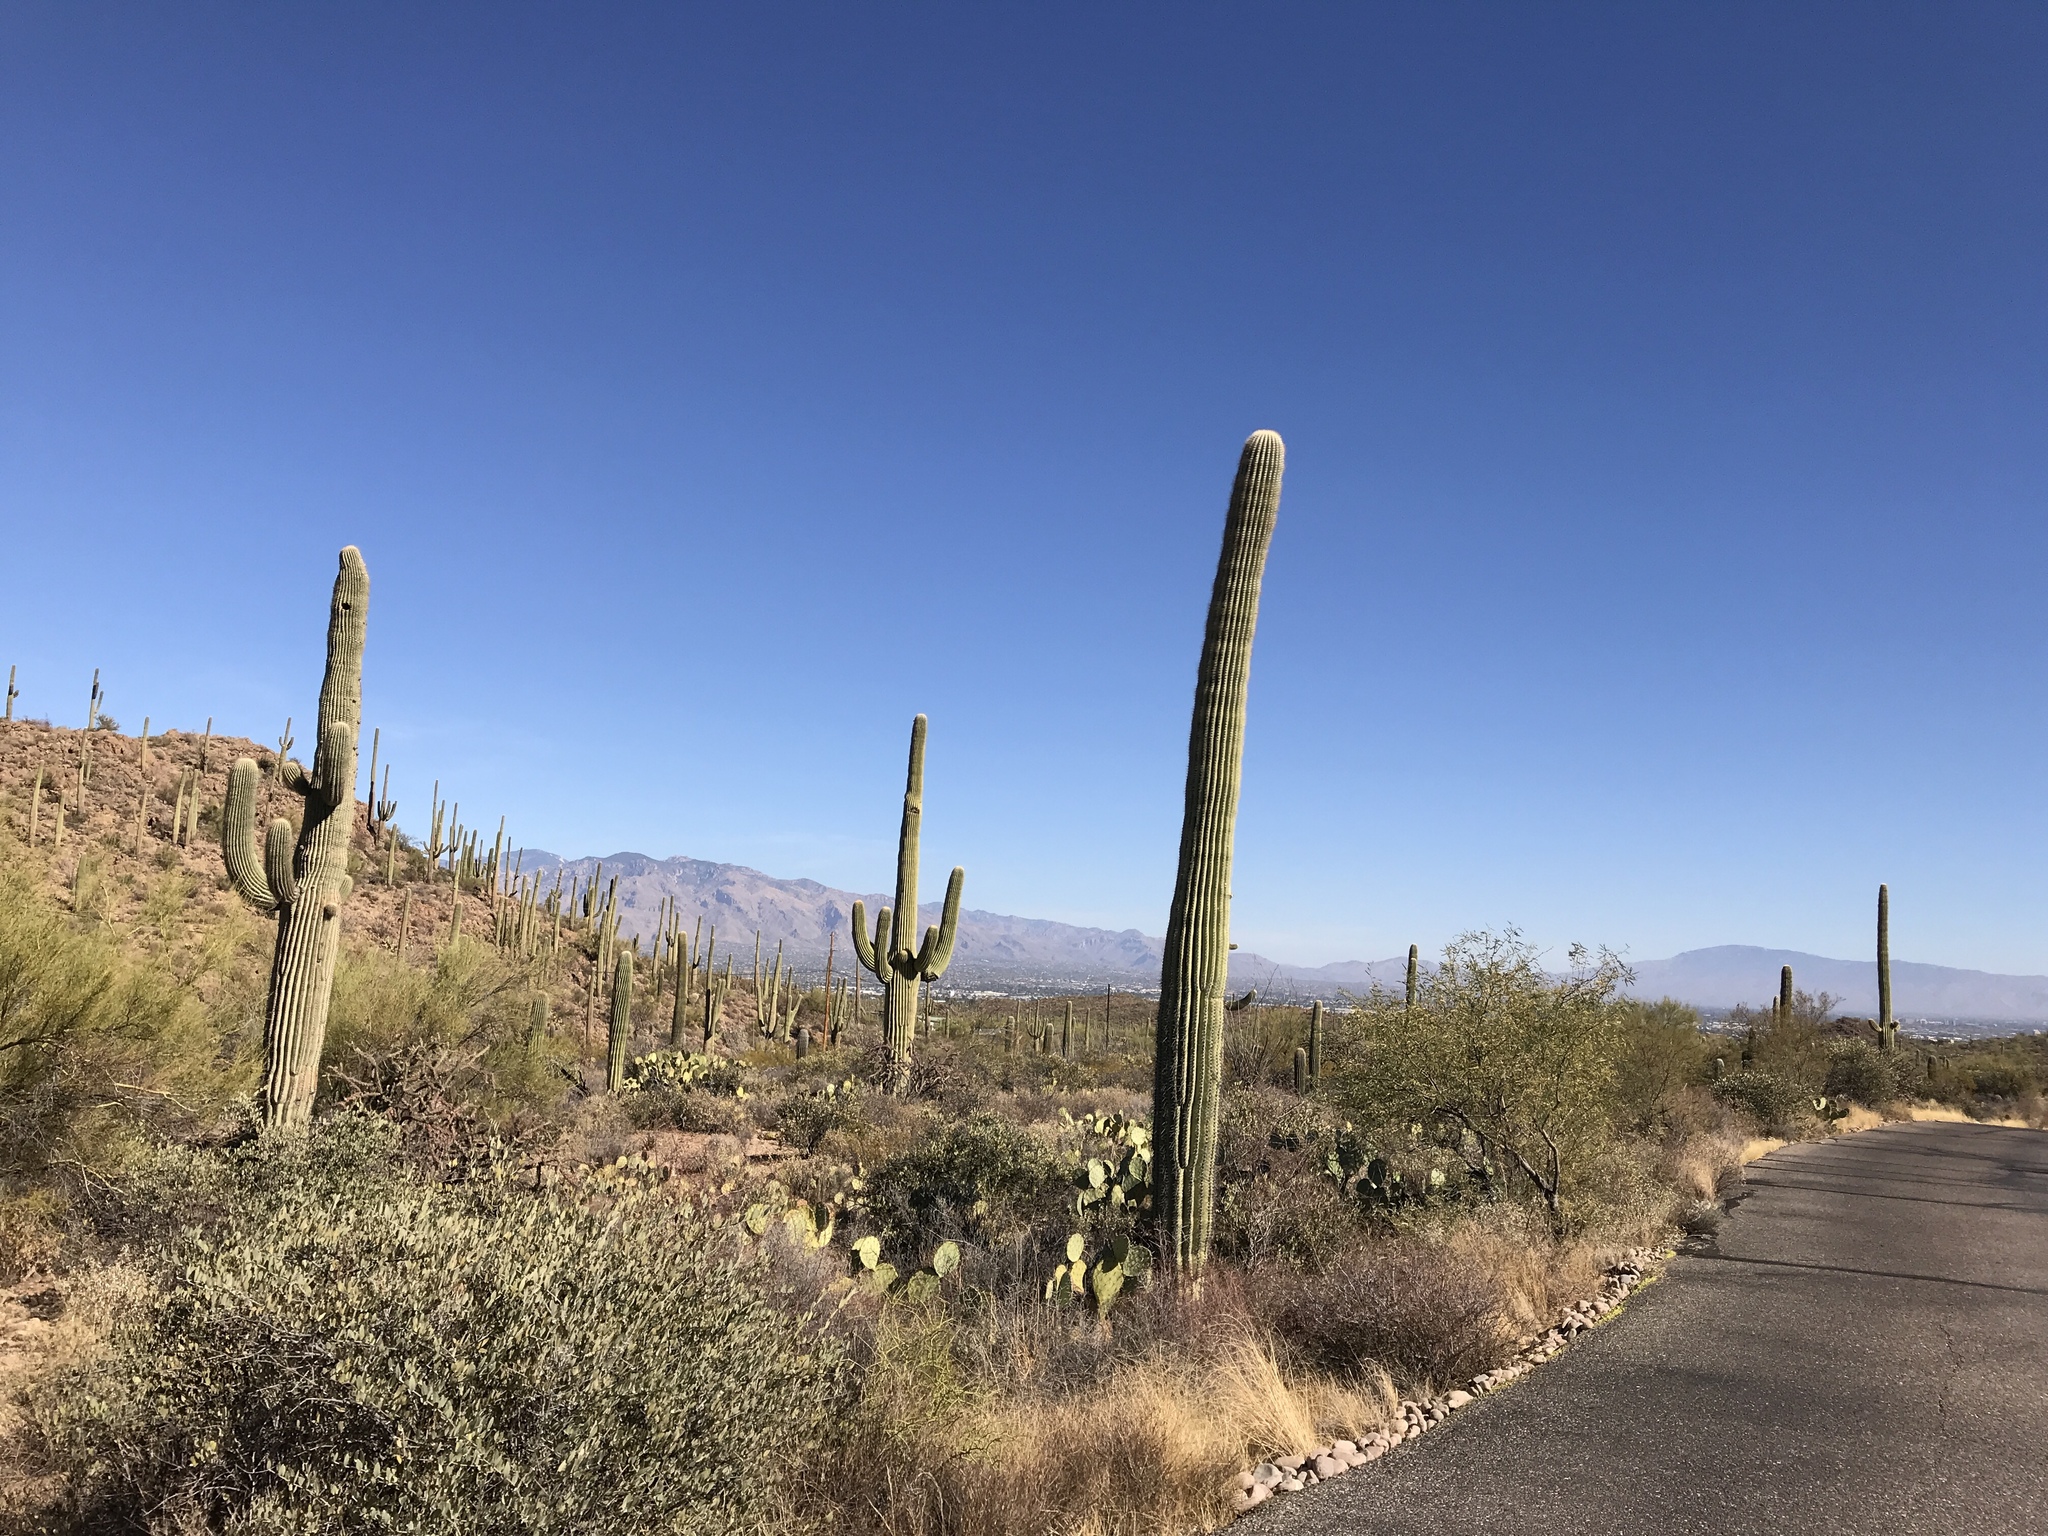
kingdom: Plantae
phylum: Tracheophyta
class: Magnoliopsida
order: Caryophyllales
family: Cactaceae
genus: Carnegiea
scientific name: Carnegiea gigantea
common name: Saguaro
